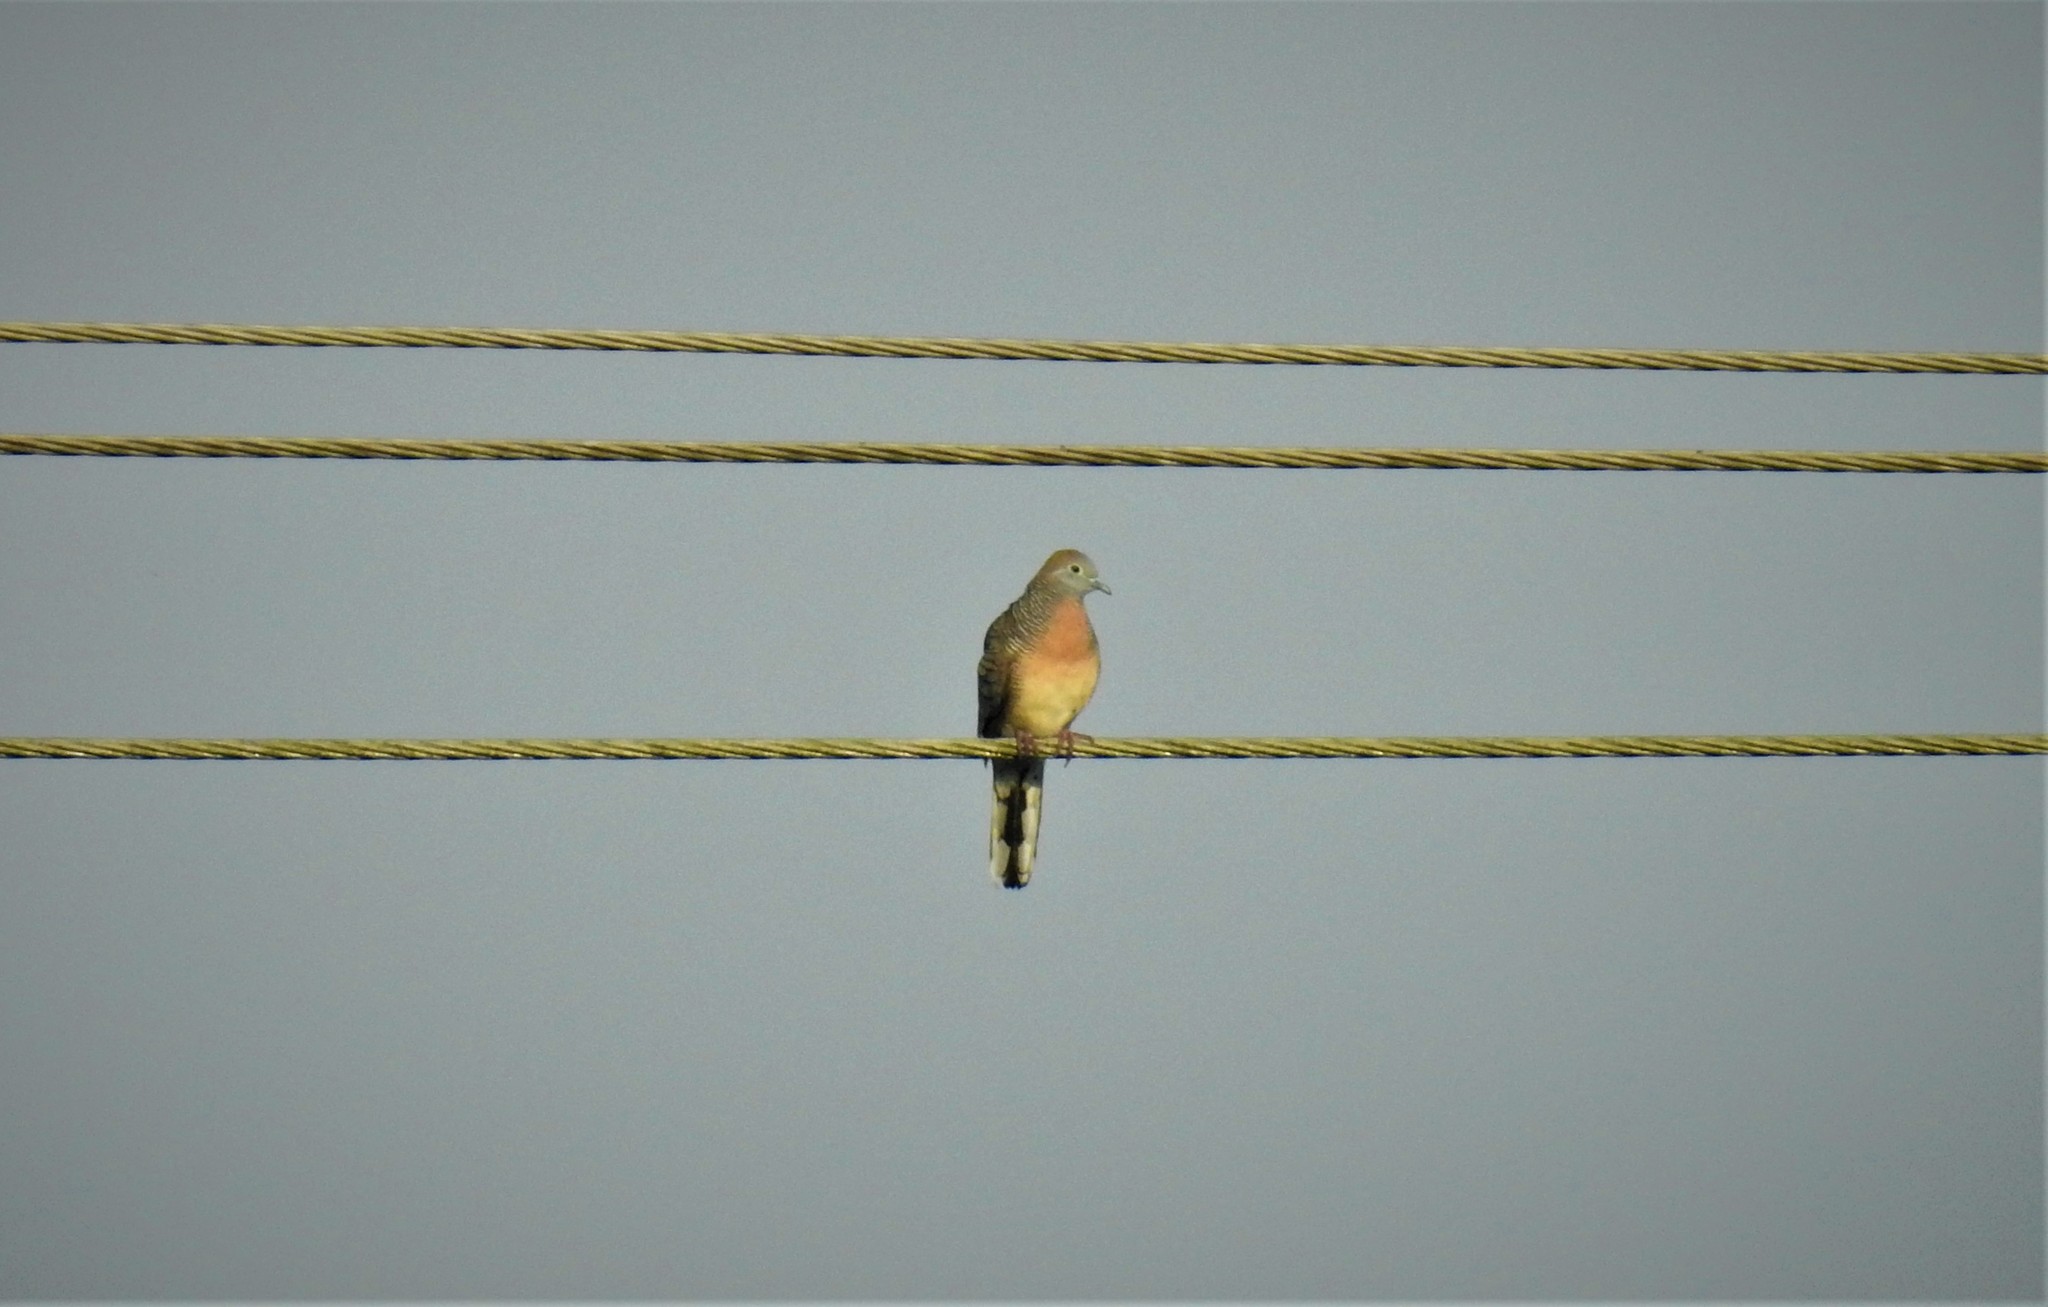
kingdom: Animalia
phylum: Chordata
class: Aves
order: Columbiformes
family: Columbidae
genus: Geopelia
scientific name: Geopelia striata
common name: Zebra dove
